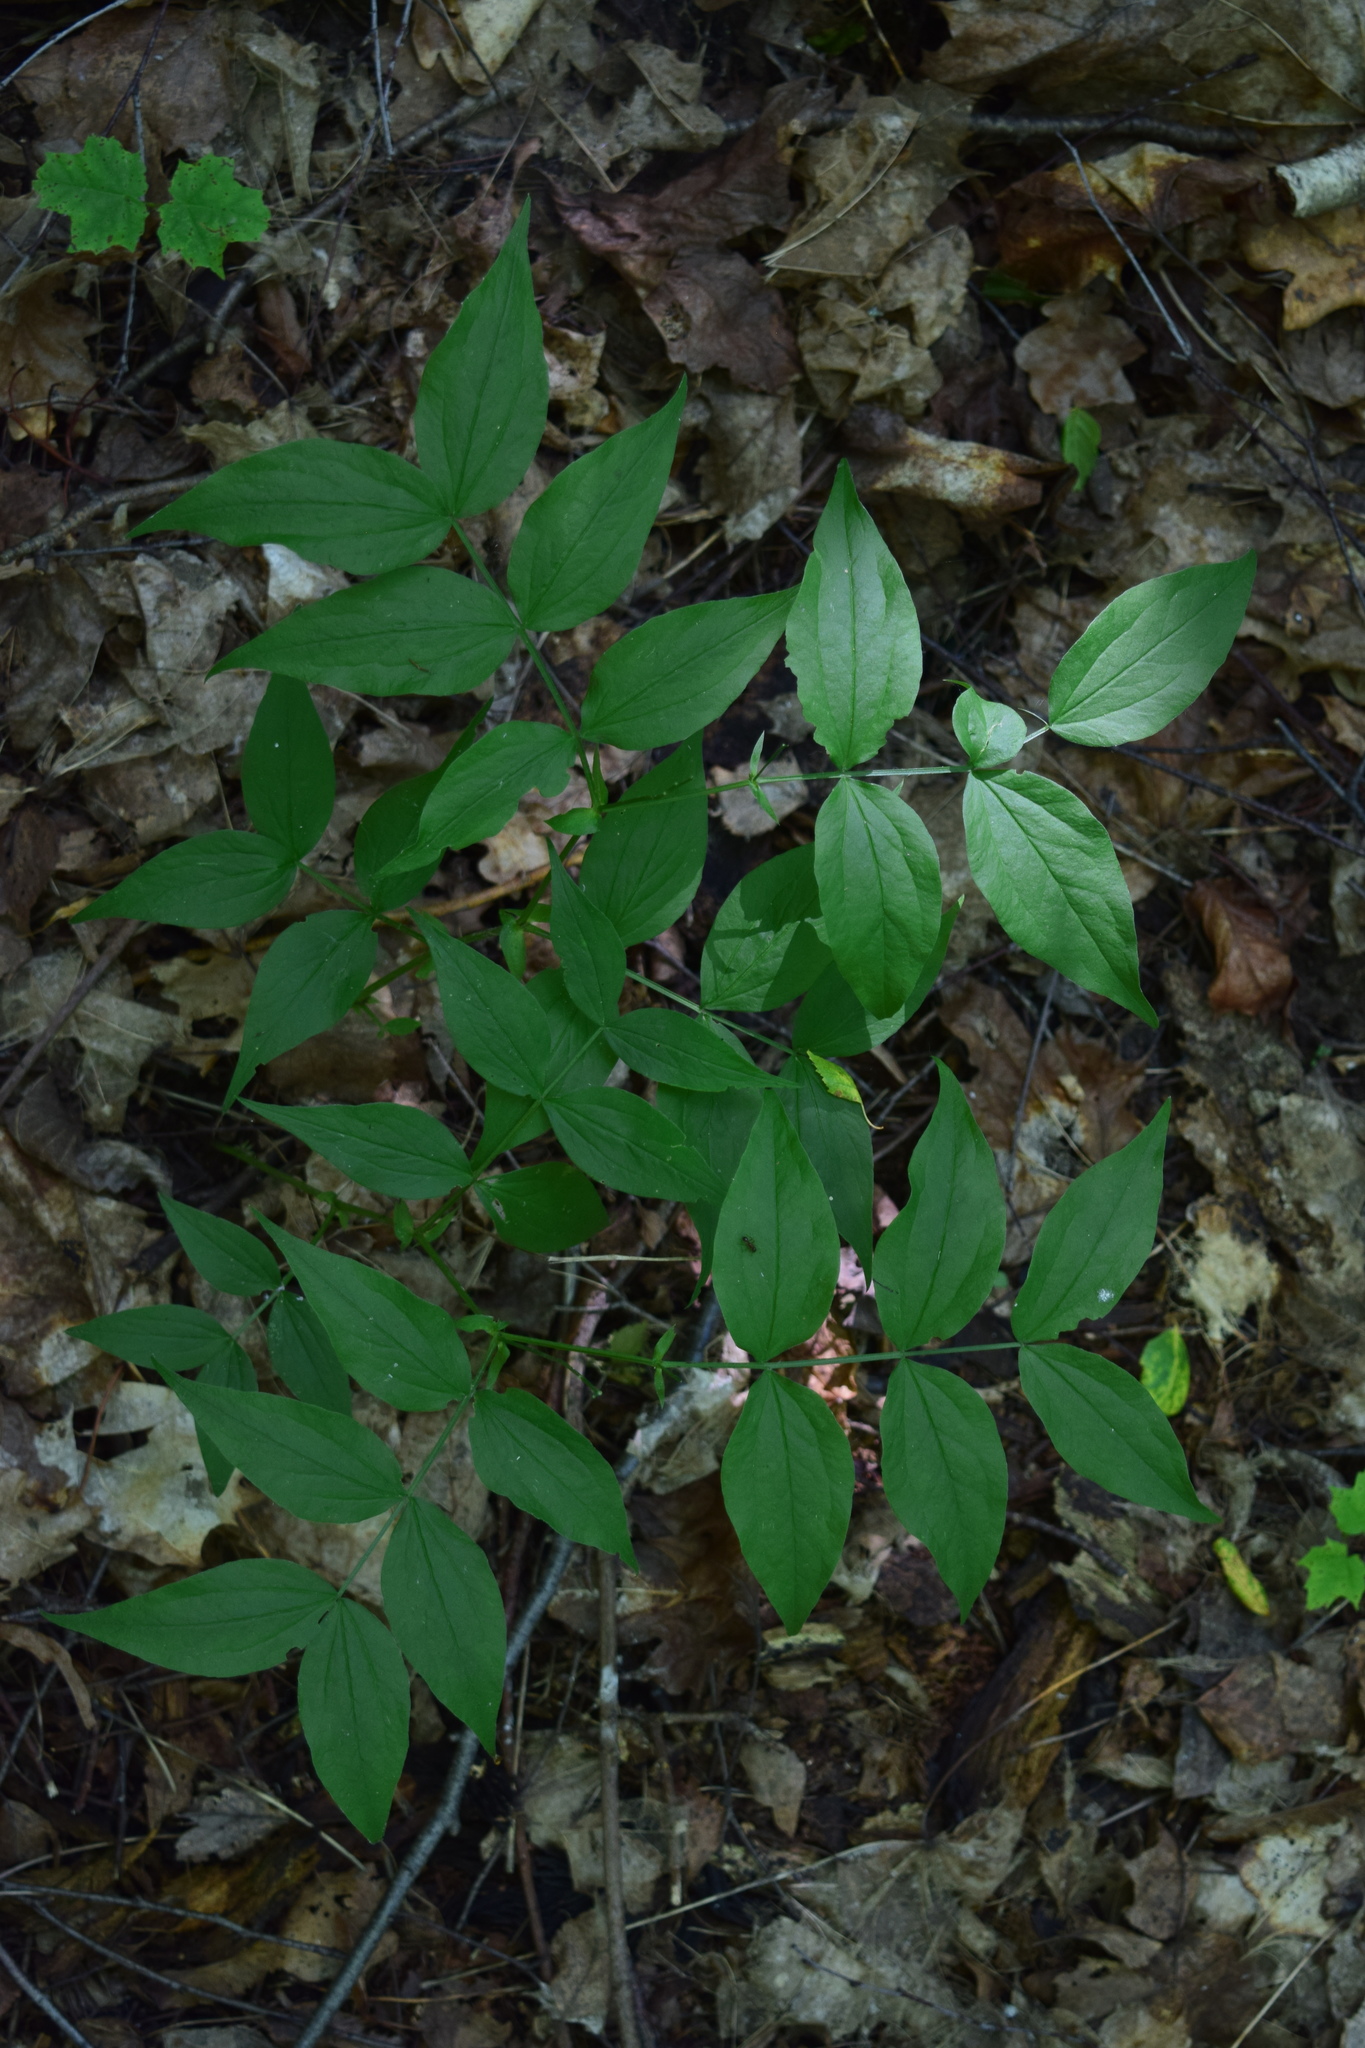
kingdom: Plantae
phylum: Tracheophyta
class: Magnoliopsida
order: Fabales
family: Fabaceae
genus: Lathyrus
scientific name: Lathyrus vernus
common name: Spring pea
